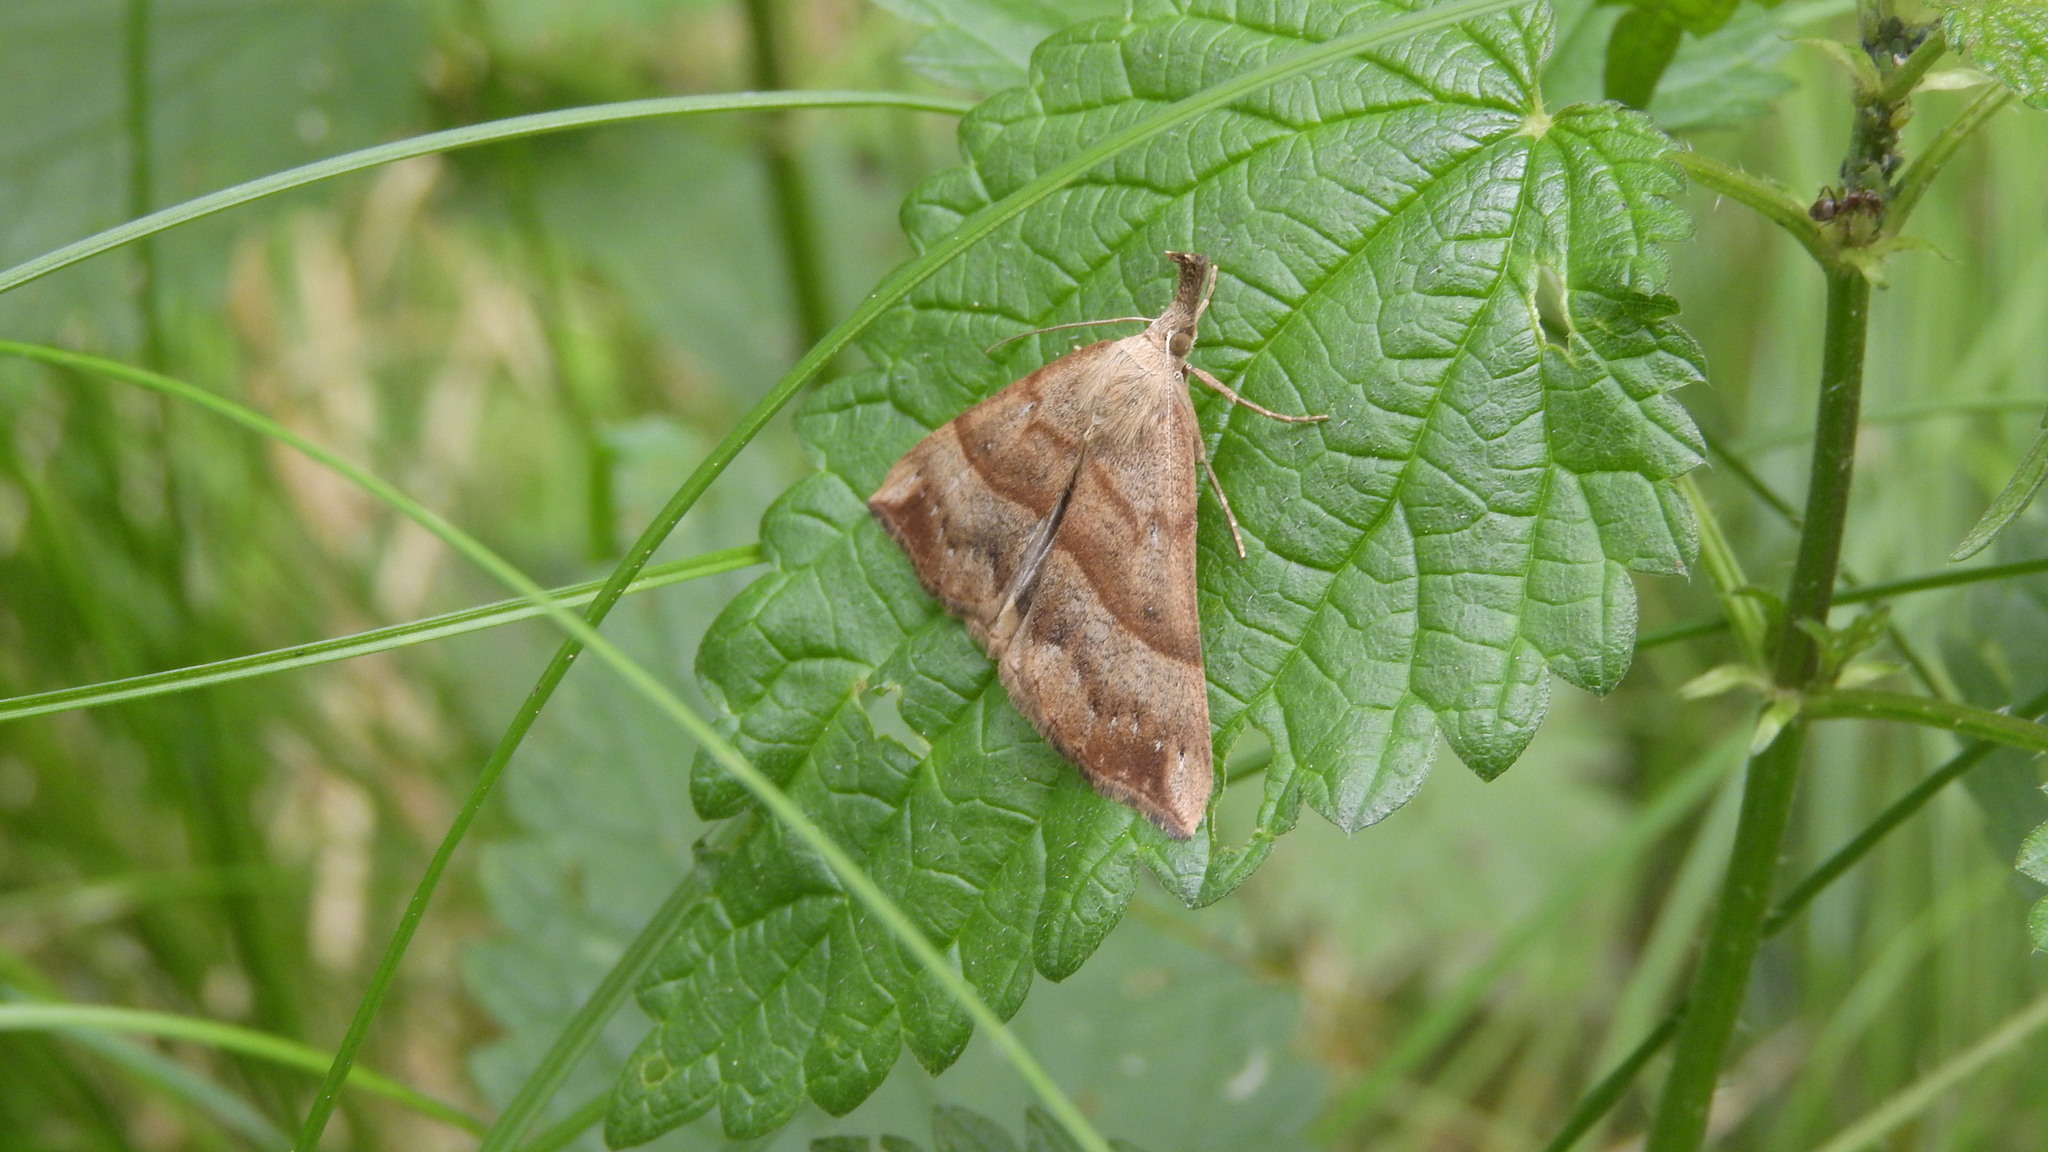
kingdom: Animalia
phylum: Arthropoda
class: Insecta
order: Lepidoptera
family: Erebidae
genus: Hypena
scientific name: Hypena proboscidalis
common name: Snout
